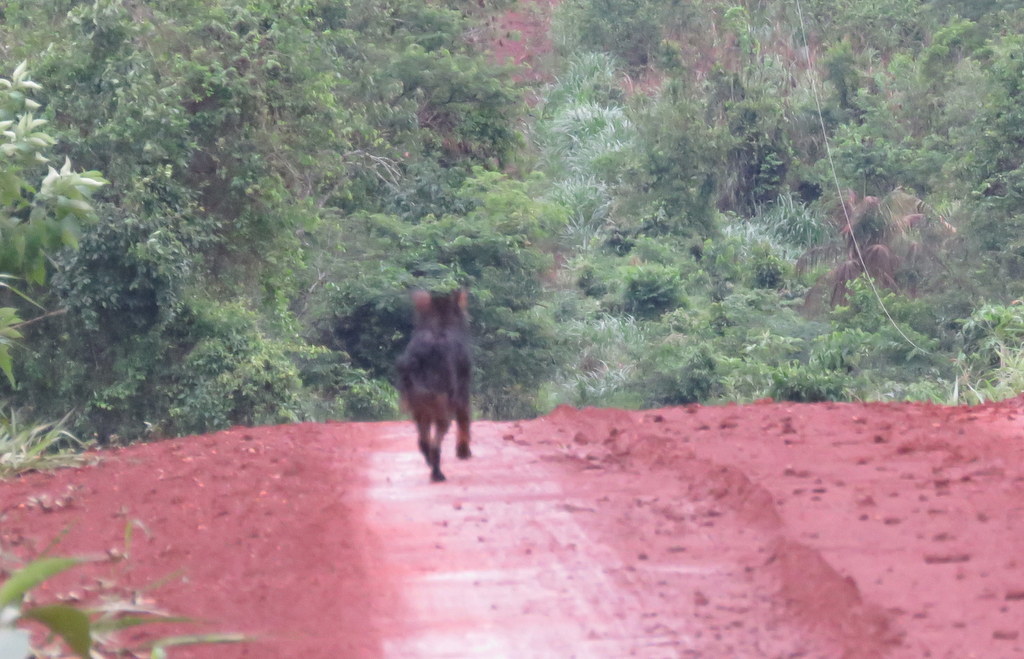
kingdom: Animalia
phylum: Chordata
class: Mammalia
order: Carnivora
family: Canidae
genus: Canis
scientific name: Canis lupus
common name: Gray wolf
